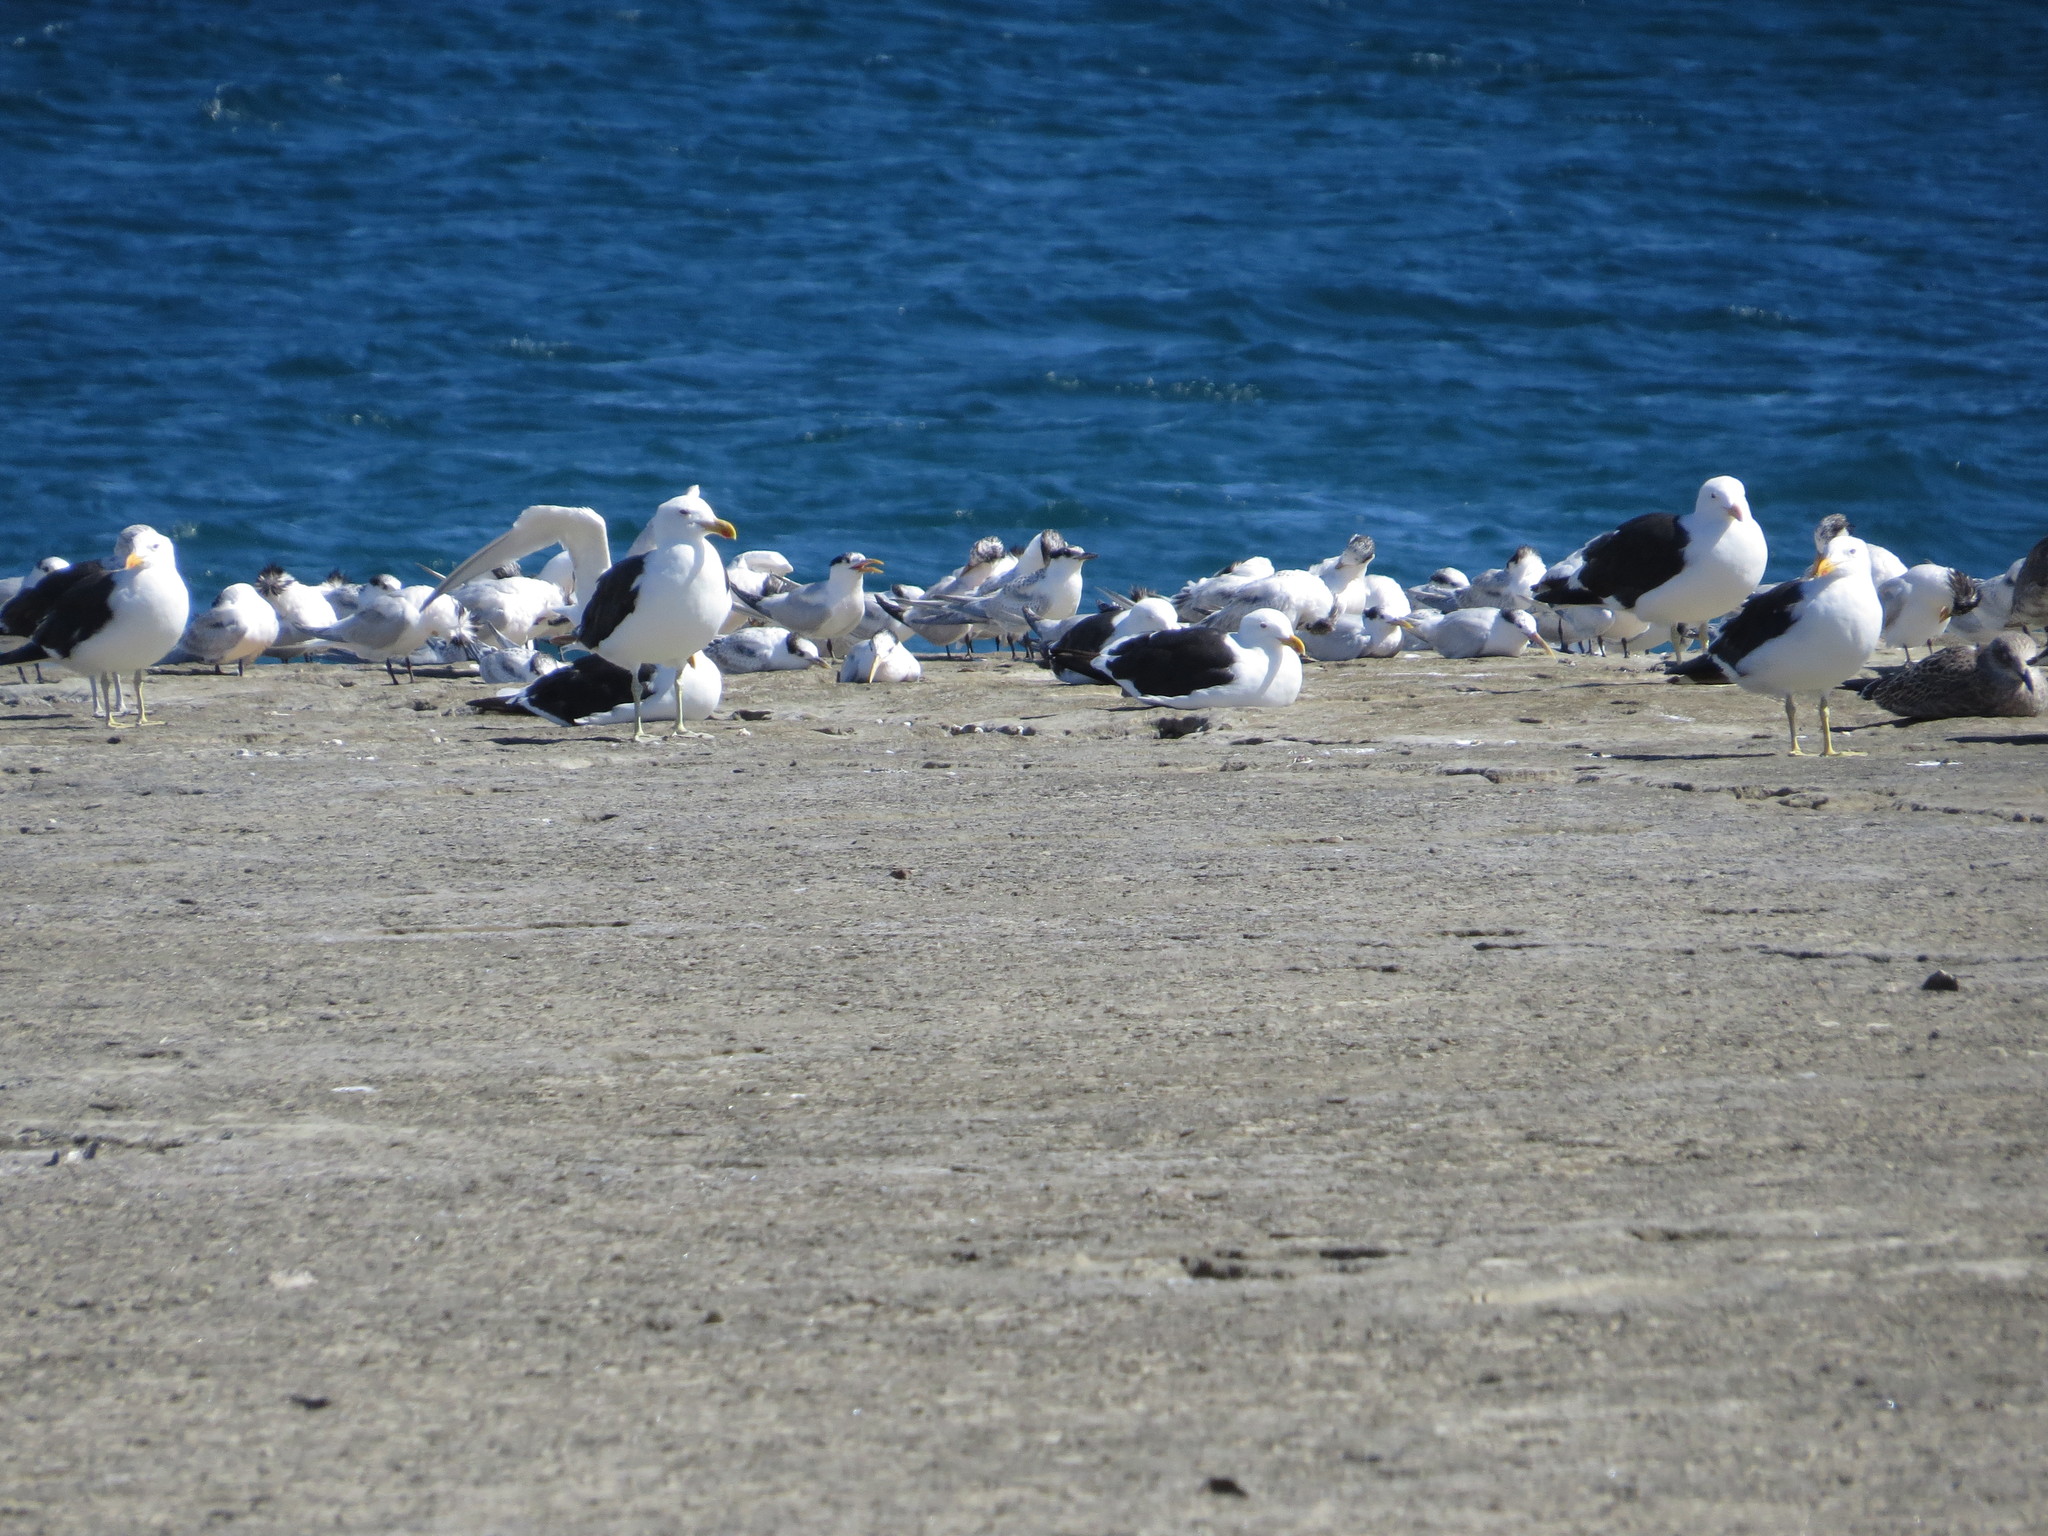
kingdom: Animalia
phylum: Chordata
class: Aves
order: Charadriiformes
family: Laridae
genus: Thalasseus
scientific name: Thalasseus sandvicensis
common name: Sandwich tern
